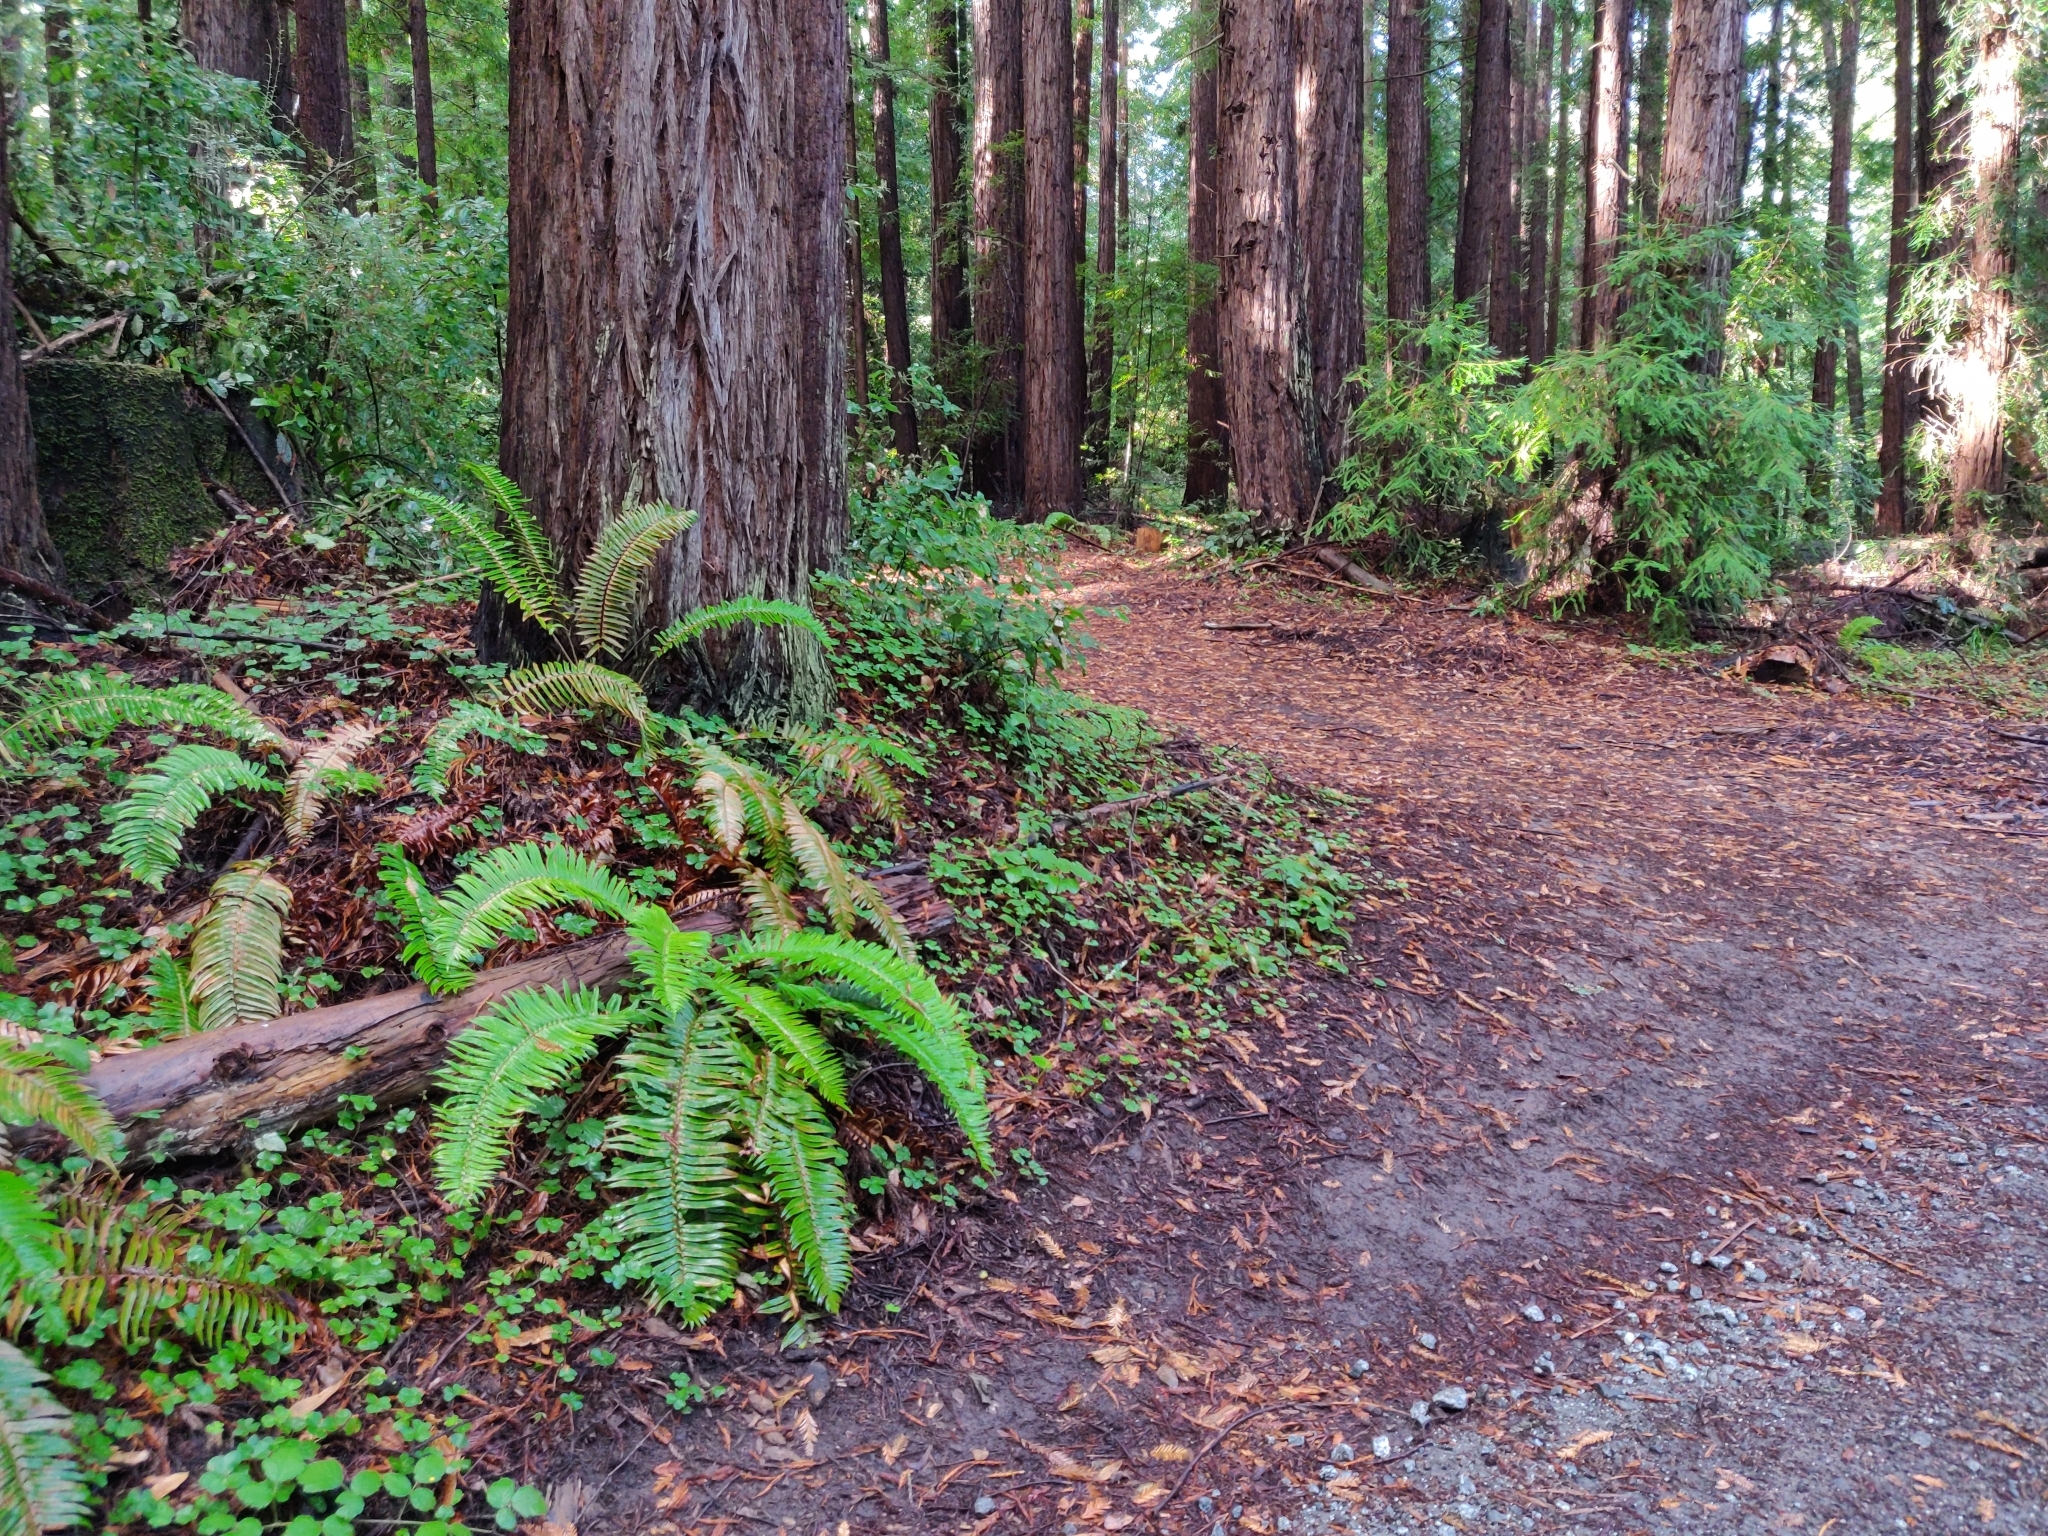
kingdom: Plantae
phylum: Tracheophyta
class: Polypodiopsida
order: Polypodiales
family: Dryopteridaceae
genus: Polystichum
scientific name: Polystichum munitum
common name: Western sword-fern
